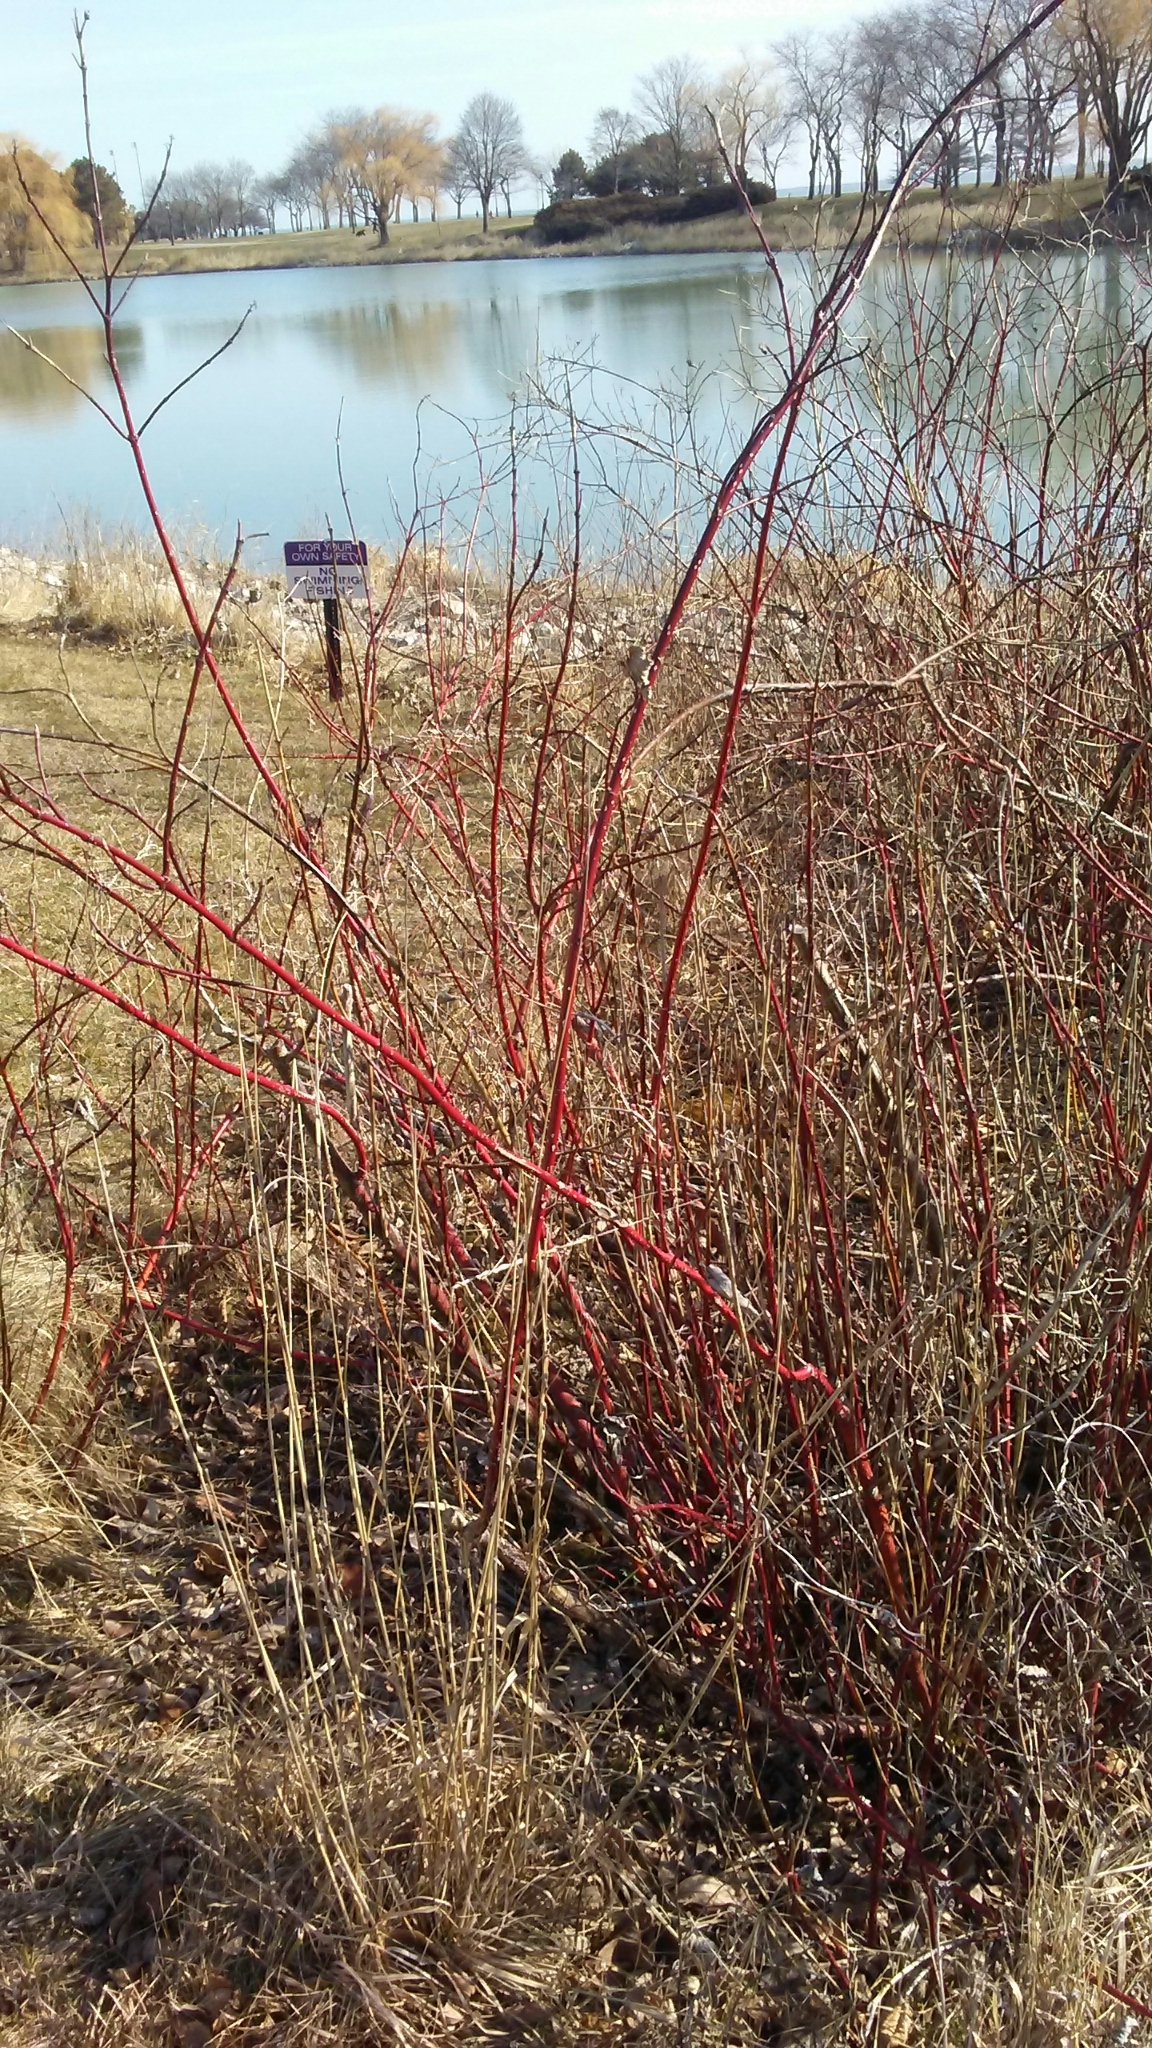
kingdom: Plantae
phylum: Tracheophyta
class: Magnoliopsida
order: Cornales
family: Cornaceae
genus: Cornus
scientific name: Cornus sericea
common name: Red-osier dogwood
